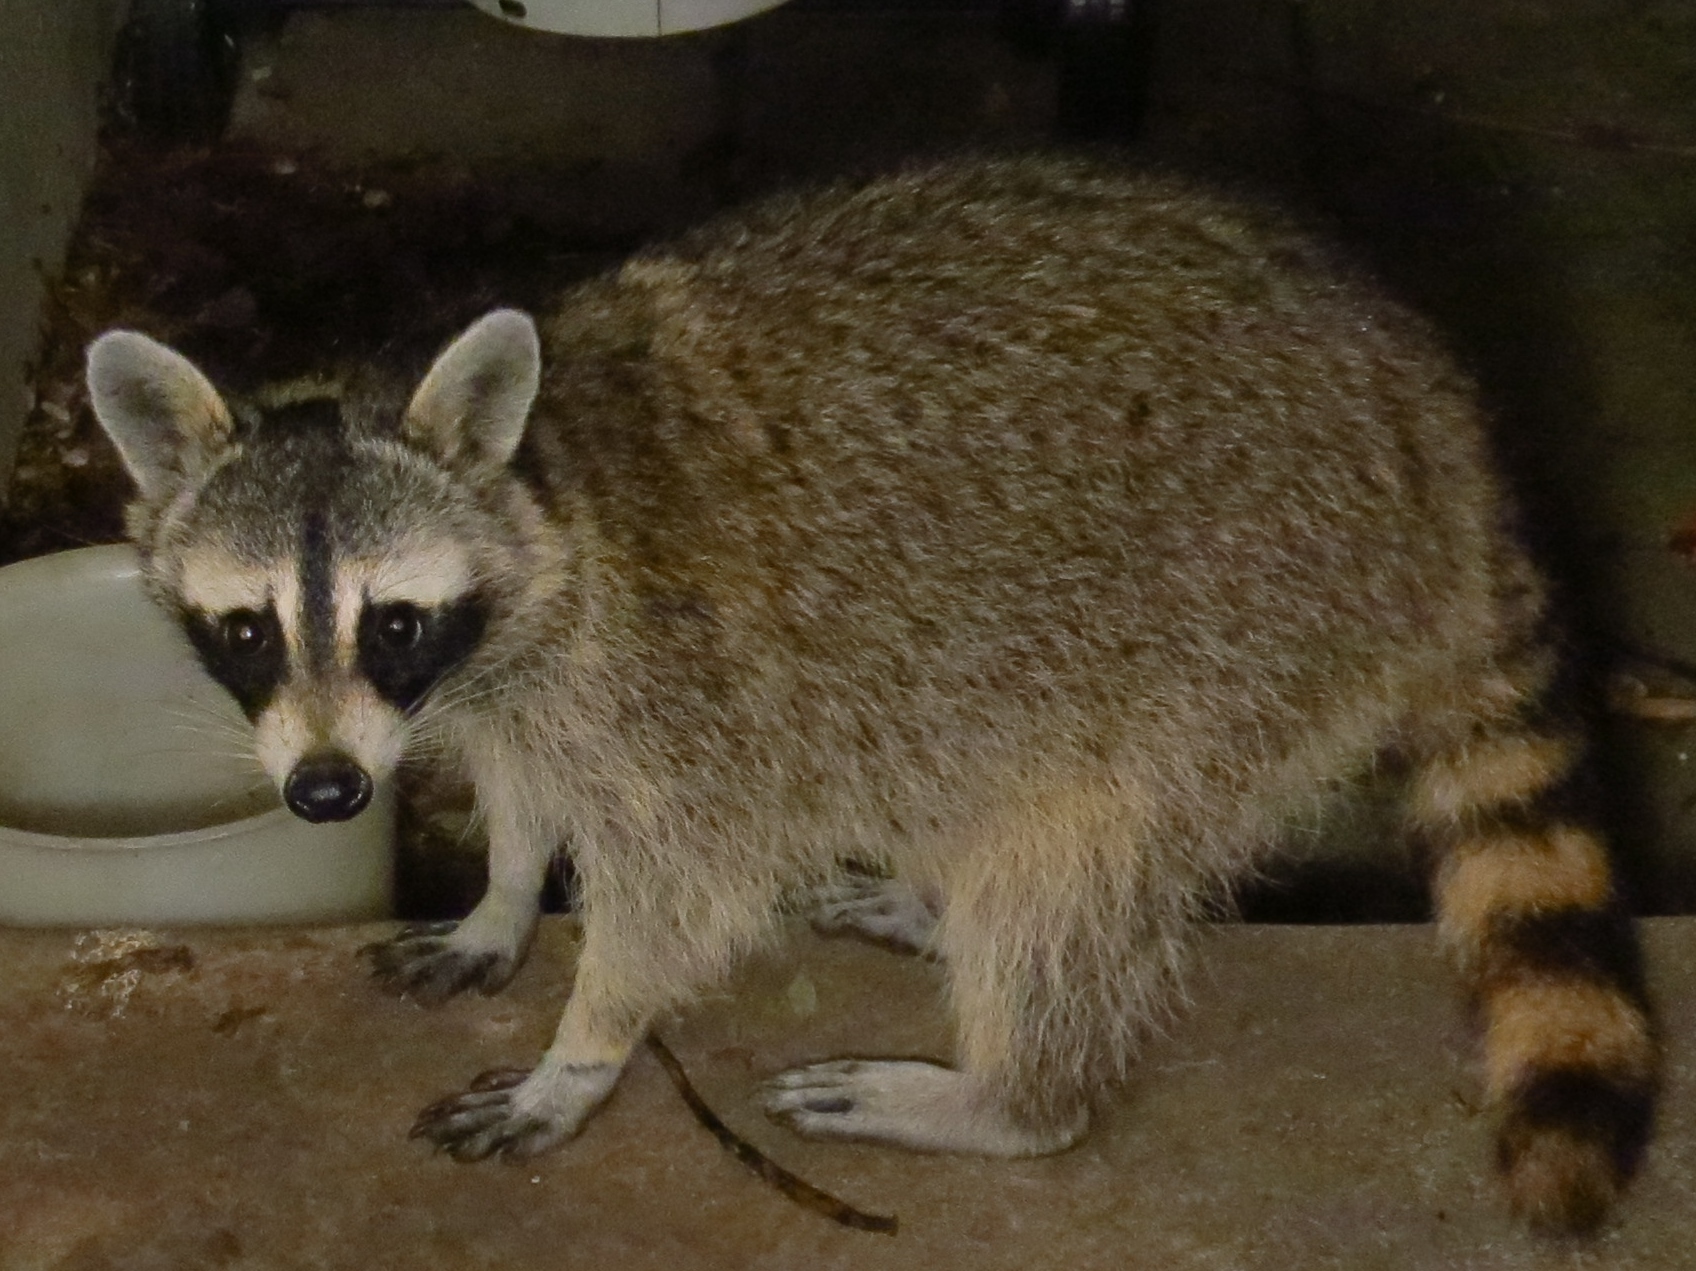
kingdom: Animalia
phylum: Chordata
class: Mammalia
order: Carnivora
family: Procyonidae
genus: Procyon
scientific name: Procyon lotor
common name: Raccoon
